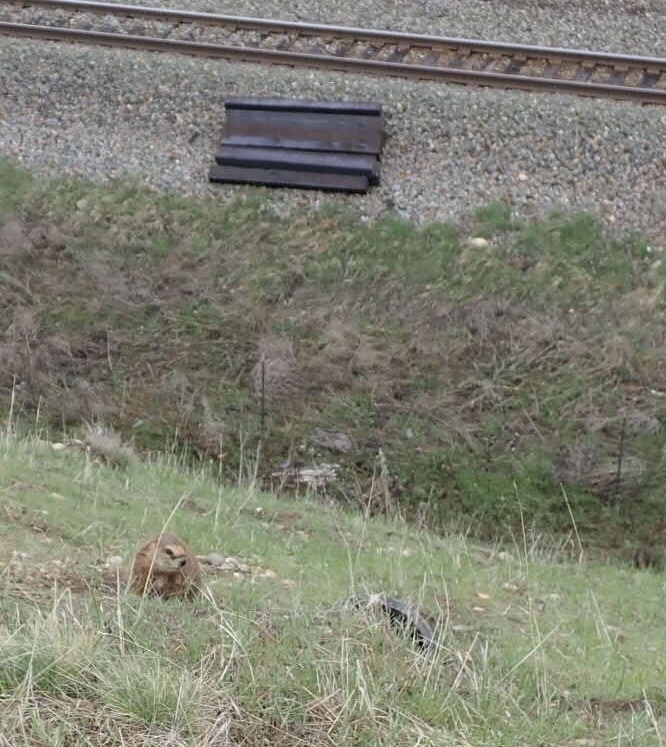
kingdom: Animalia
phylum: Chordata
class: Mammalia
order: Rodentia
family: Sciuridae
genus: Marmota
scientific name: Marmota flaviventris
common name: Yellow-bellied marmot
